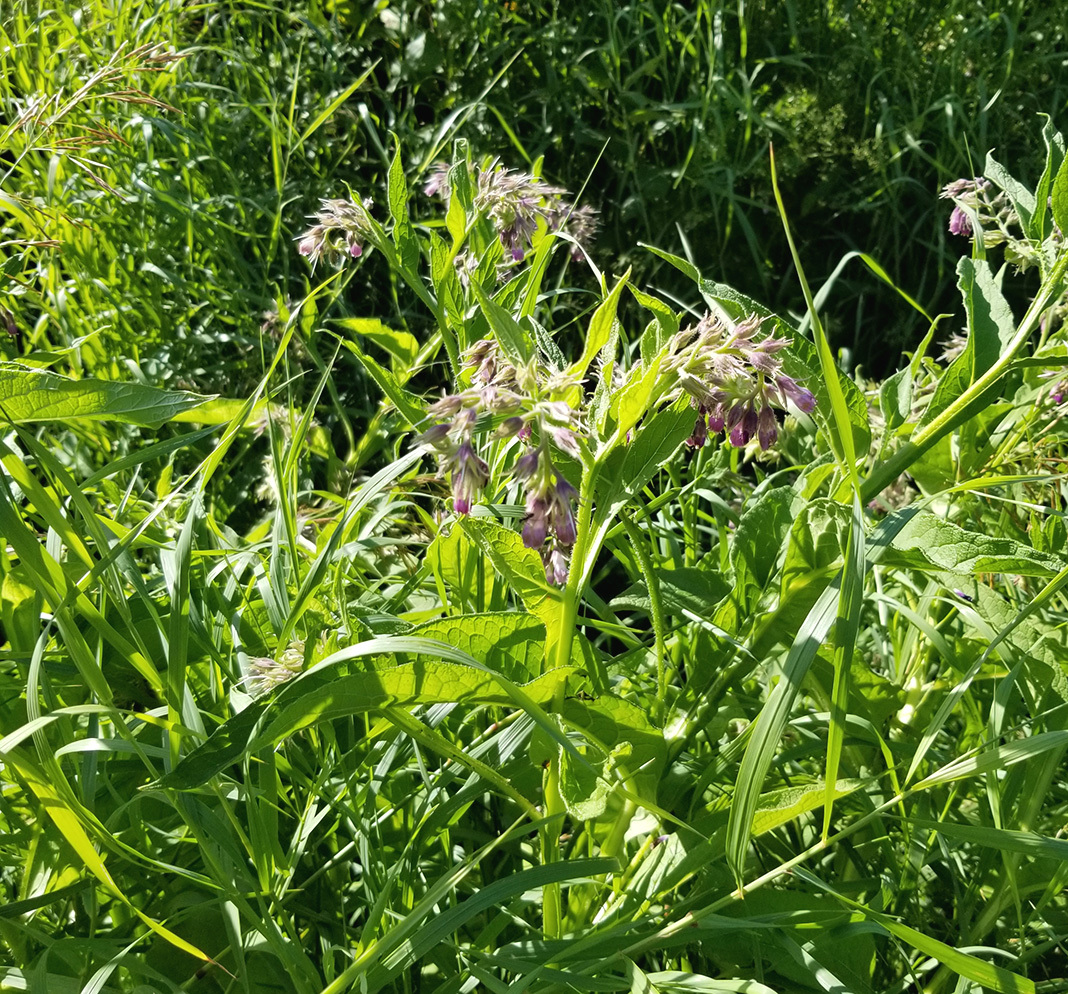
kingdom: Plantae
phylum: Tracheophyta
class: Magnoliopsida
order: Boraginales
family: Boraginaceae
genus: Symphytum
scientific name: Symphytum officinale
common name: Common comfrey
